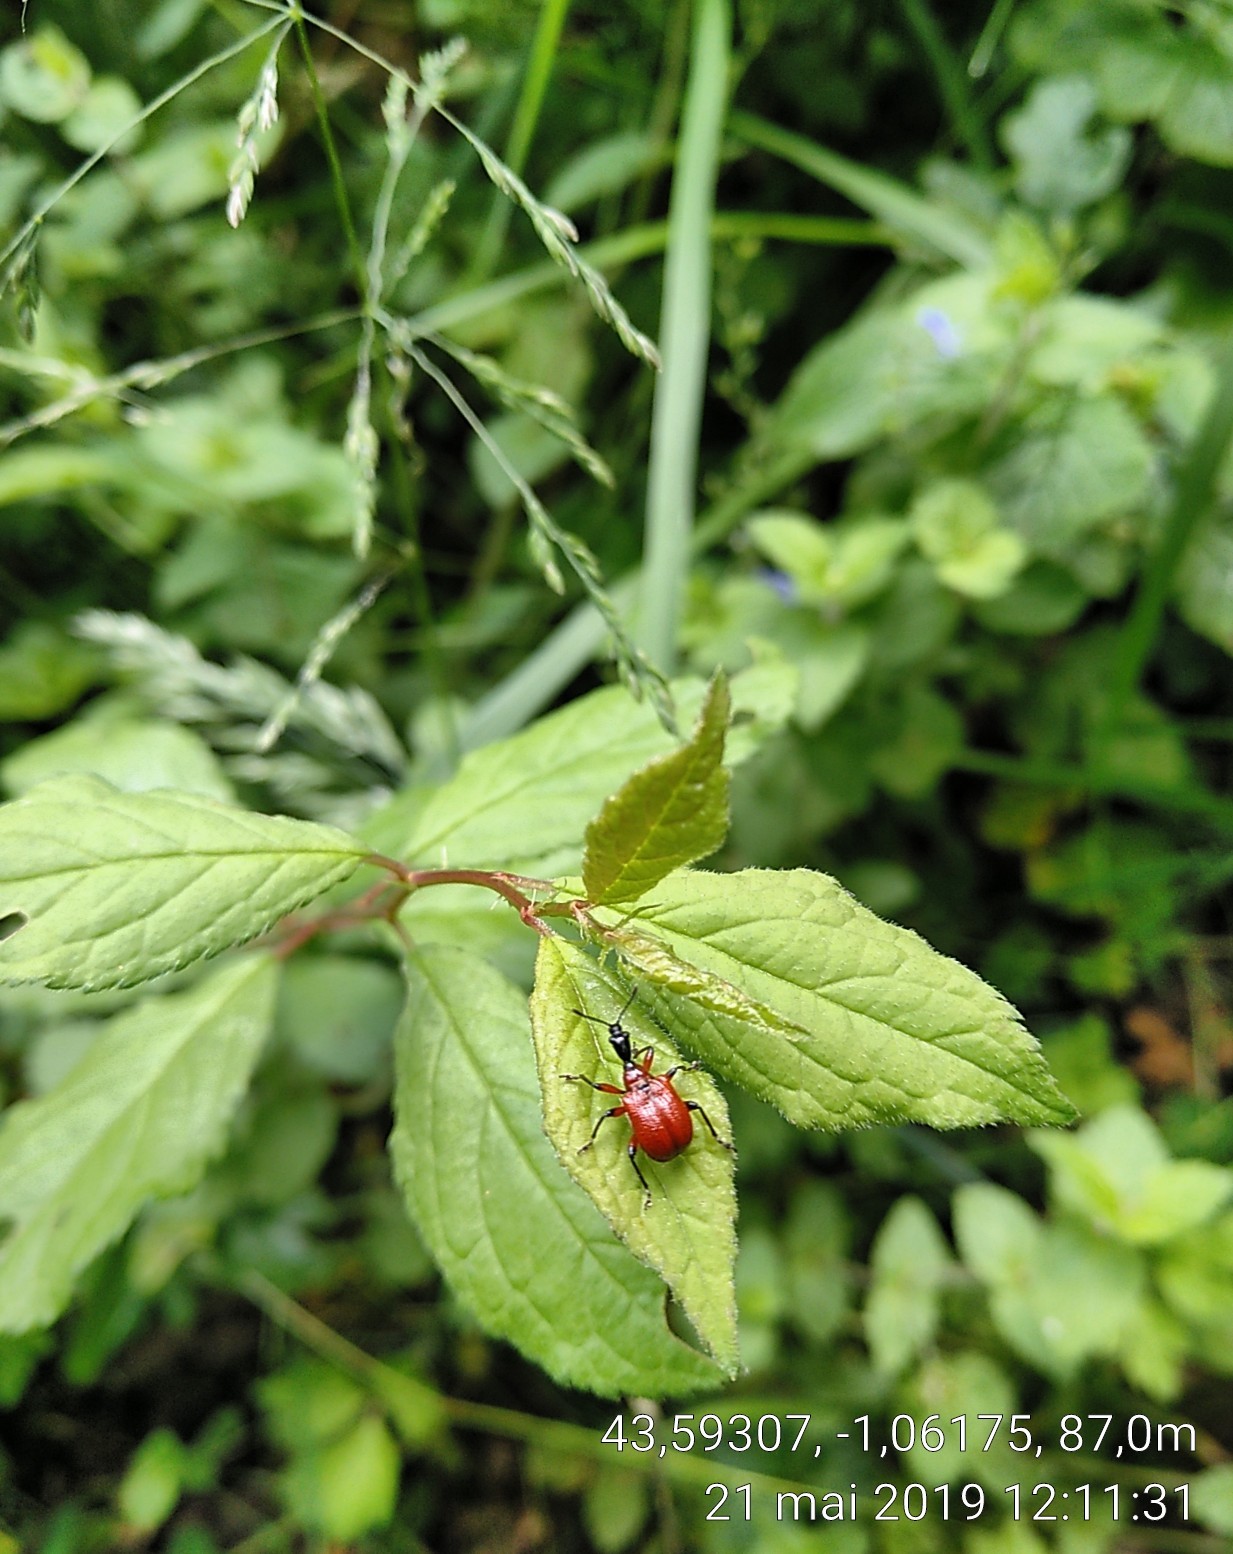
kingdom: Animalia
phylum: Arthropoda
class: Insecta
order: Coleoptera
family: Attelabidae
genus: Apoderus
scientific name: Apoderus coryli
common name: Hazel leaf roller
